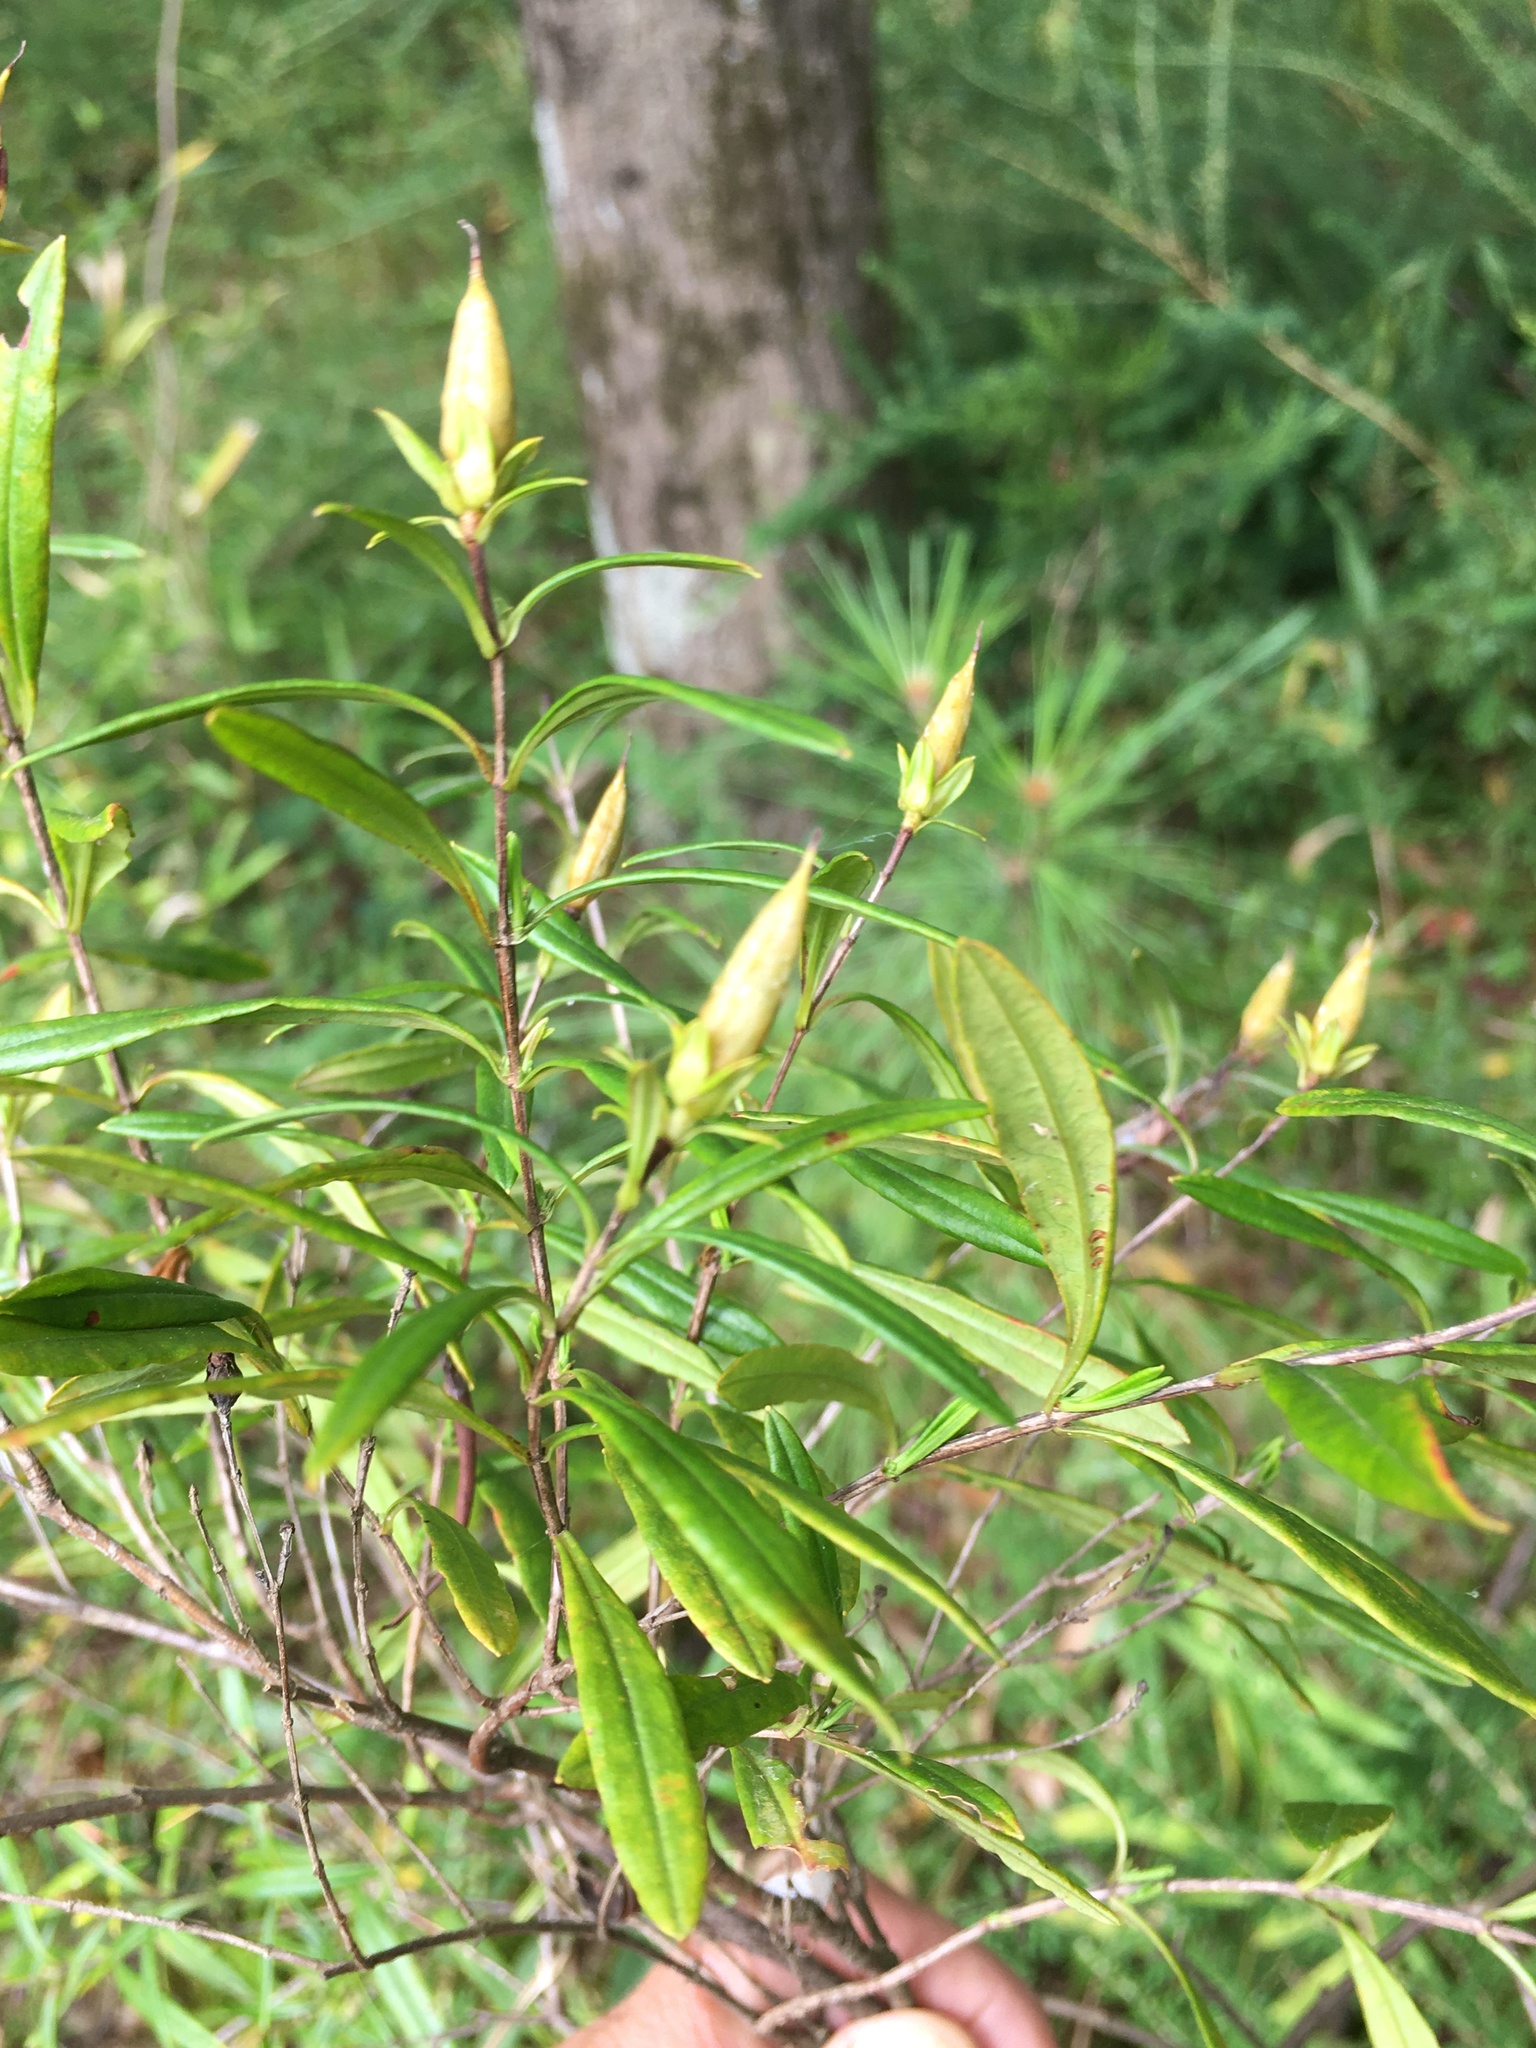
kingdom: Plantae
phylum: Tracheophyta
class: Magnoliopsida
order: Malpighiales
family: Hypericaceae
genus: Hypericum
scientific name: Hypericum prolificum
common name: Shrubby st. john's-wort
